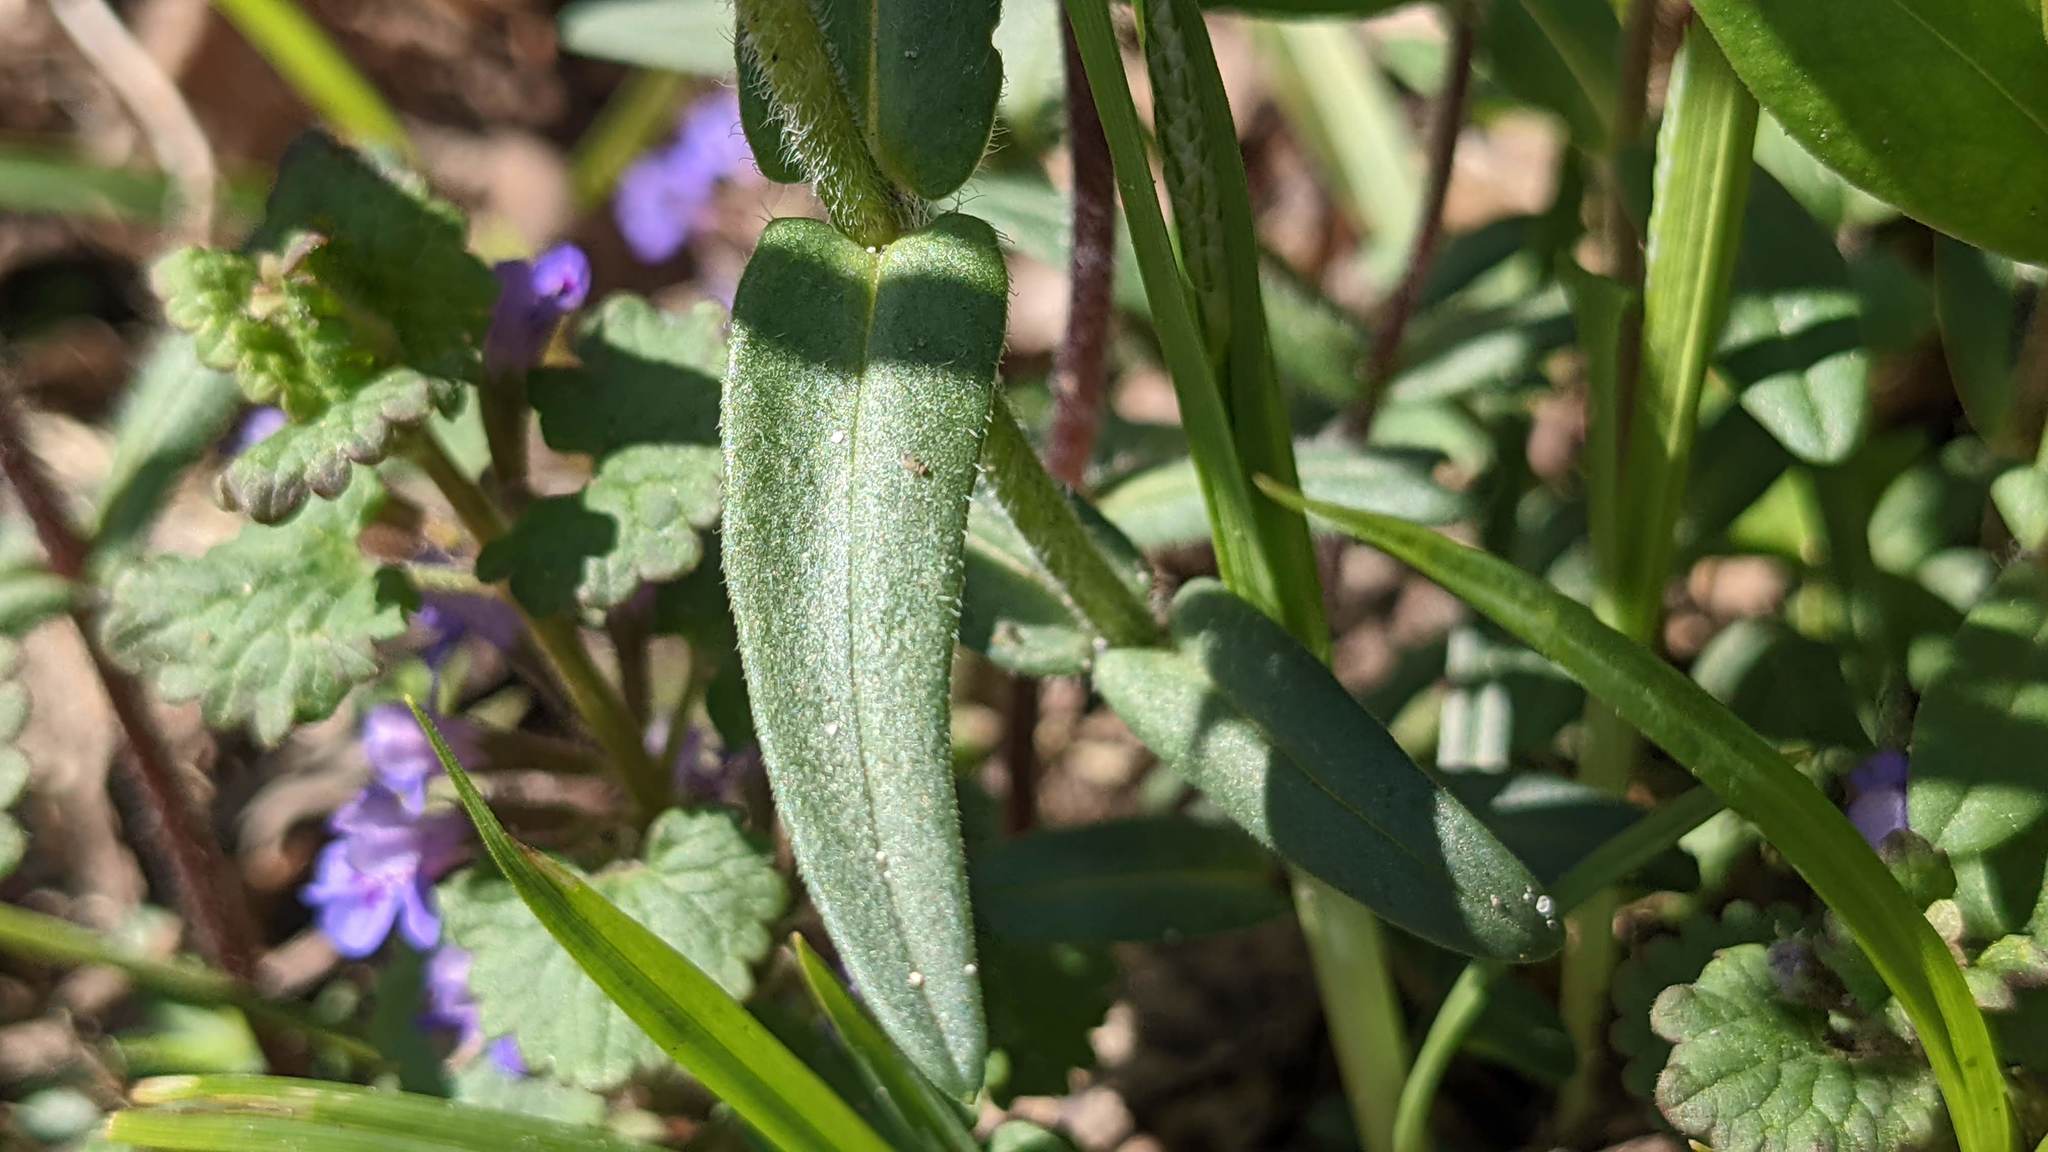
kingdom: Plantae
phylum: Tracheophyta
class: Magnoliopsida
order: Ericales
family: Polemoniaceae
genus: Phlox
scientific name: Phlox divaricata
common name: Blue phlox
